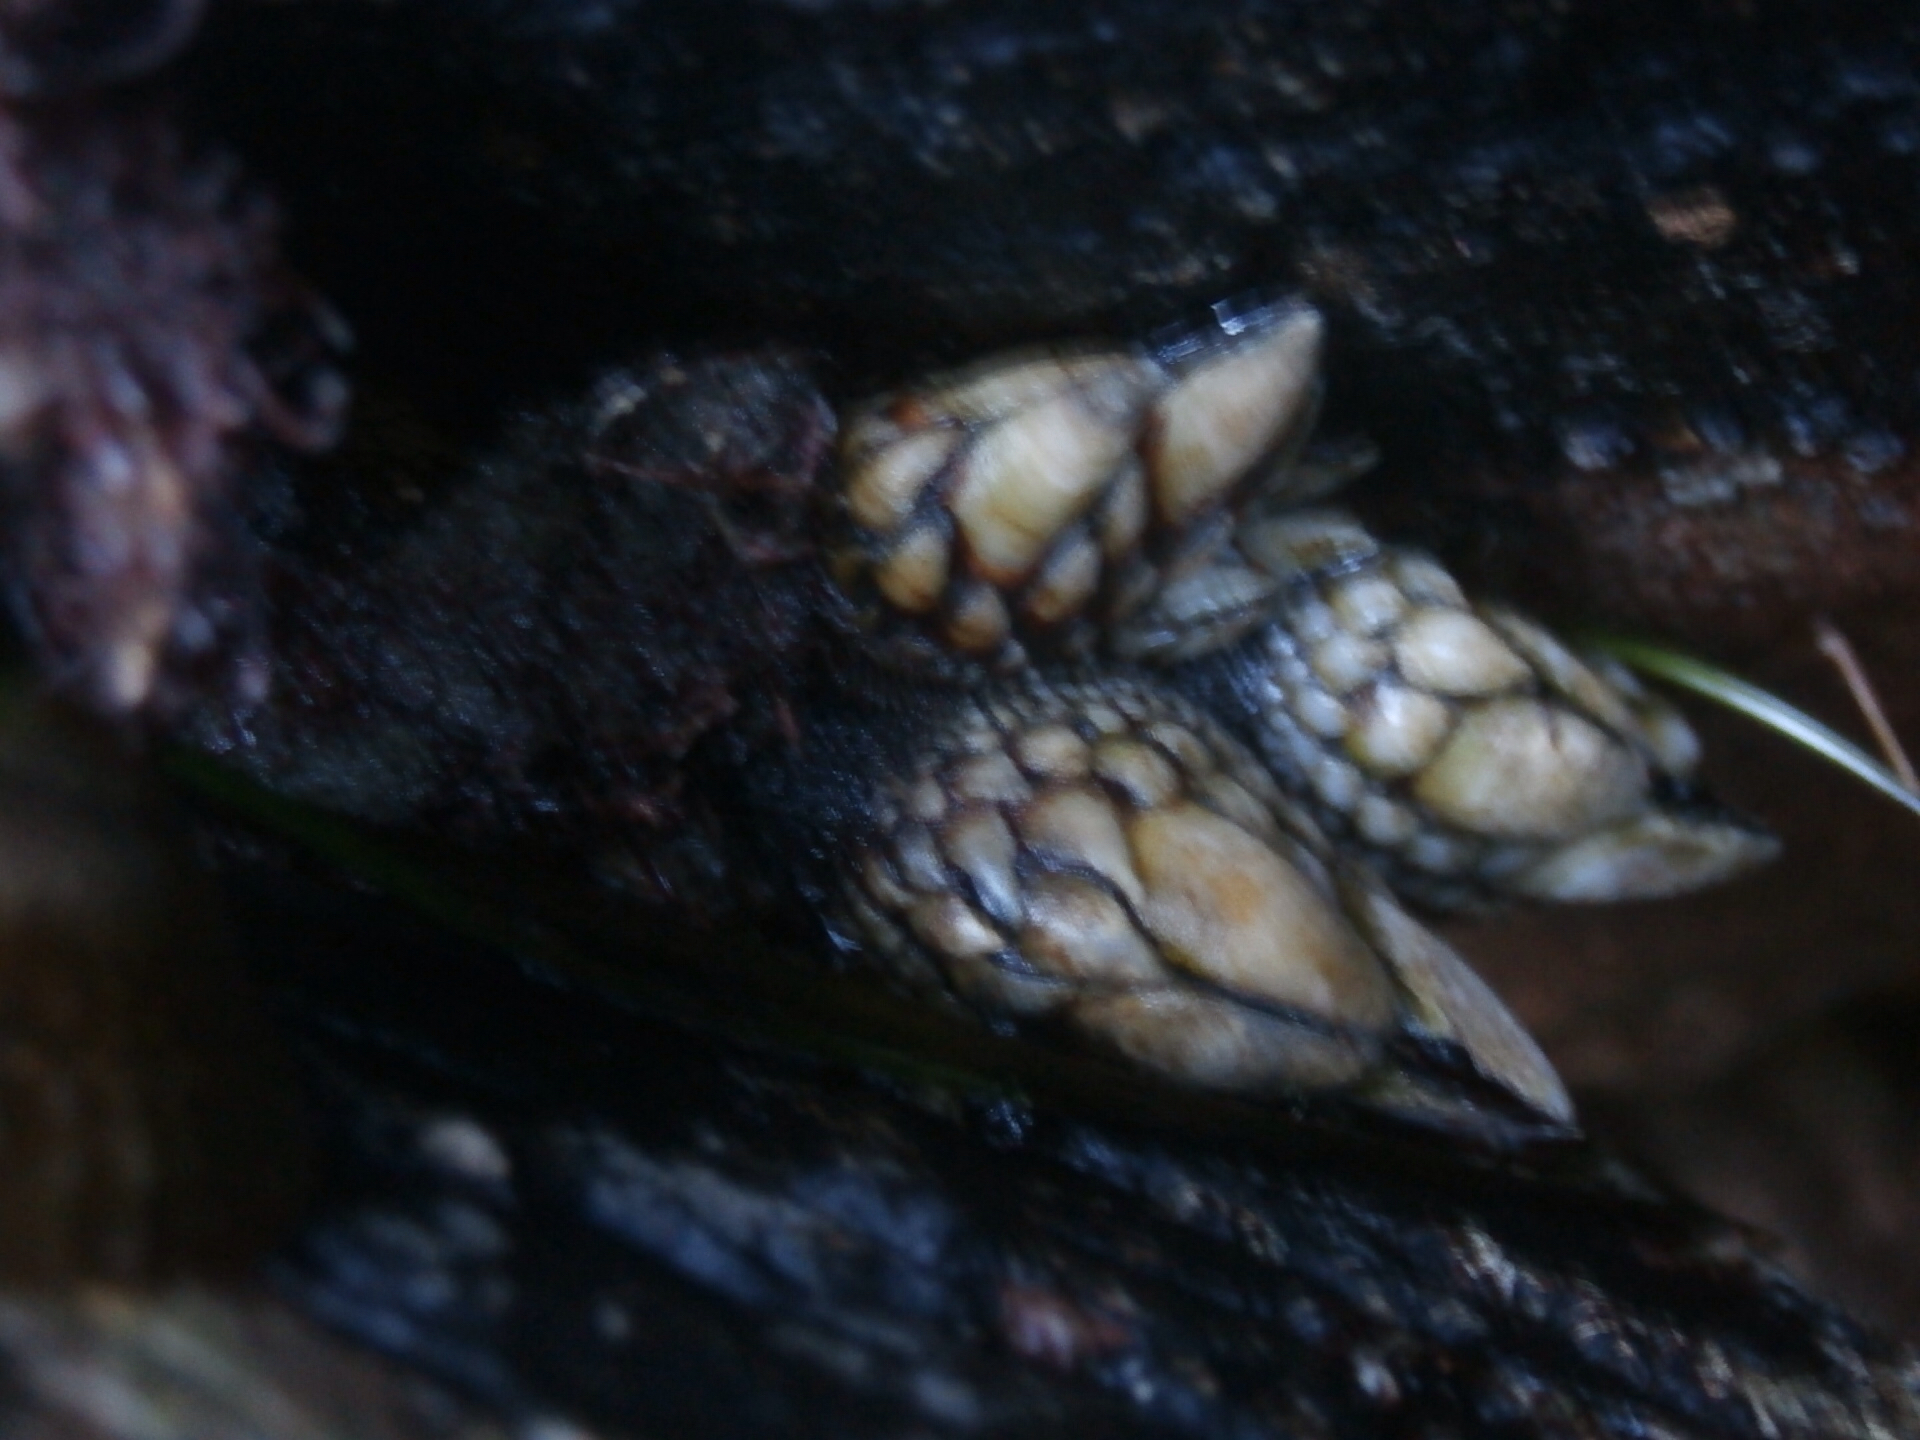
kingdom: Animalia
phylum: Arthropoda
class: Maxillopoda
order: Pedunculata
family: Pollicipedidae
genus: Pollicipes
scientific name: Pollicipes polymerus
